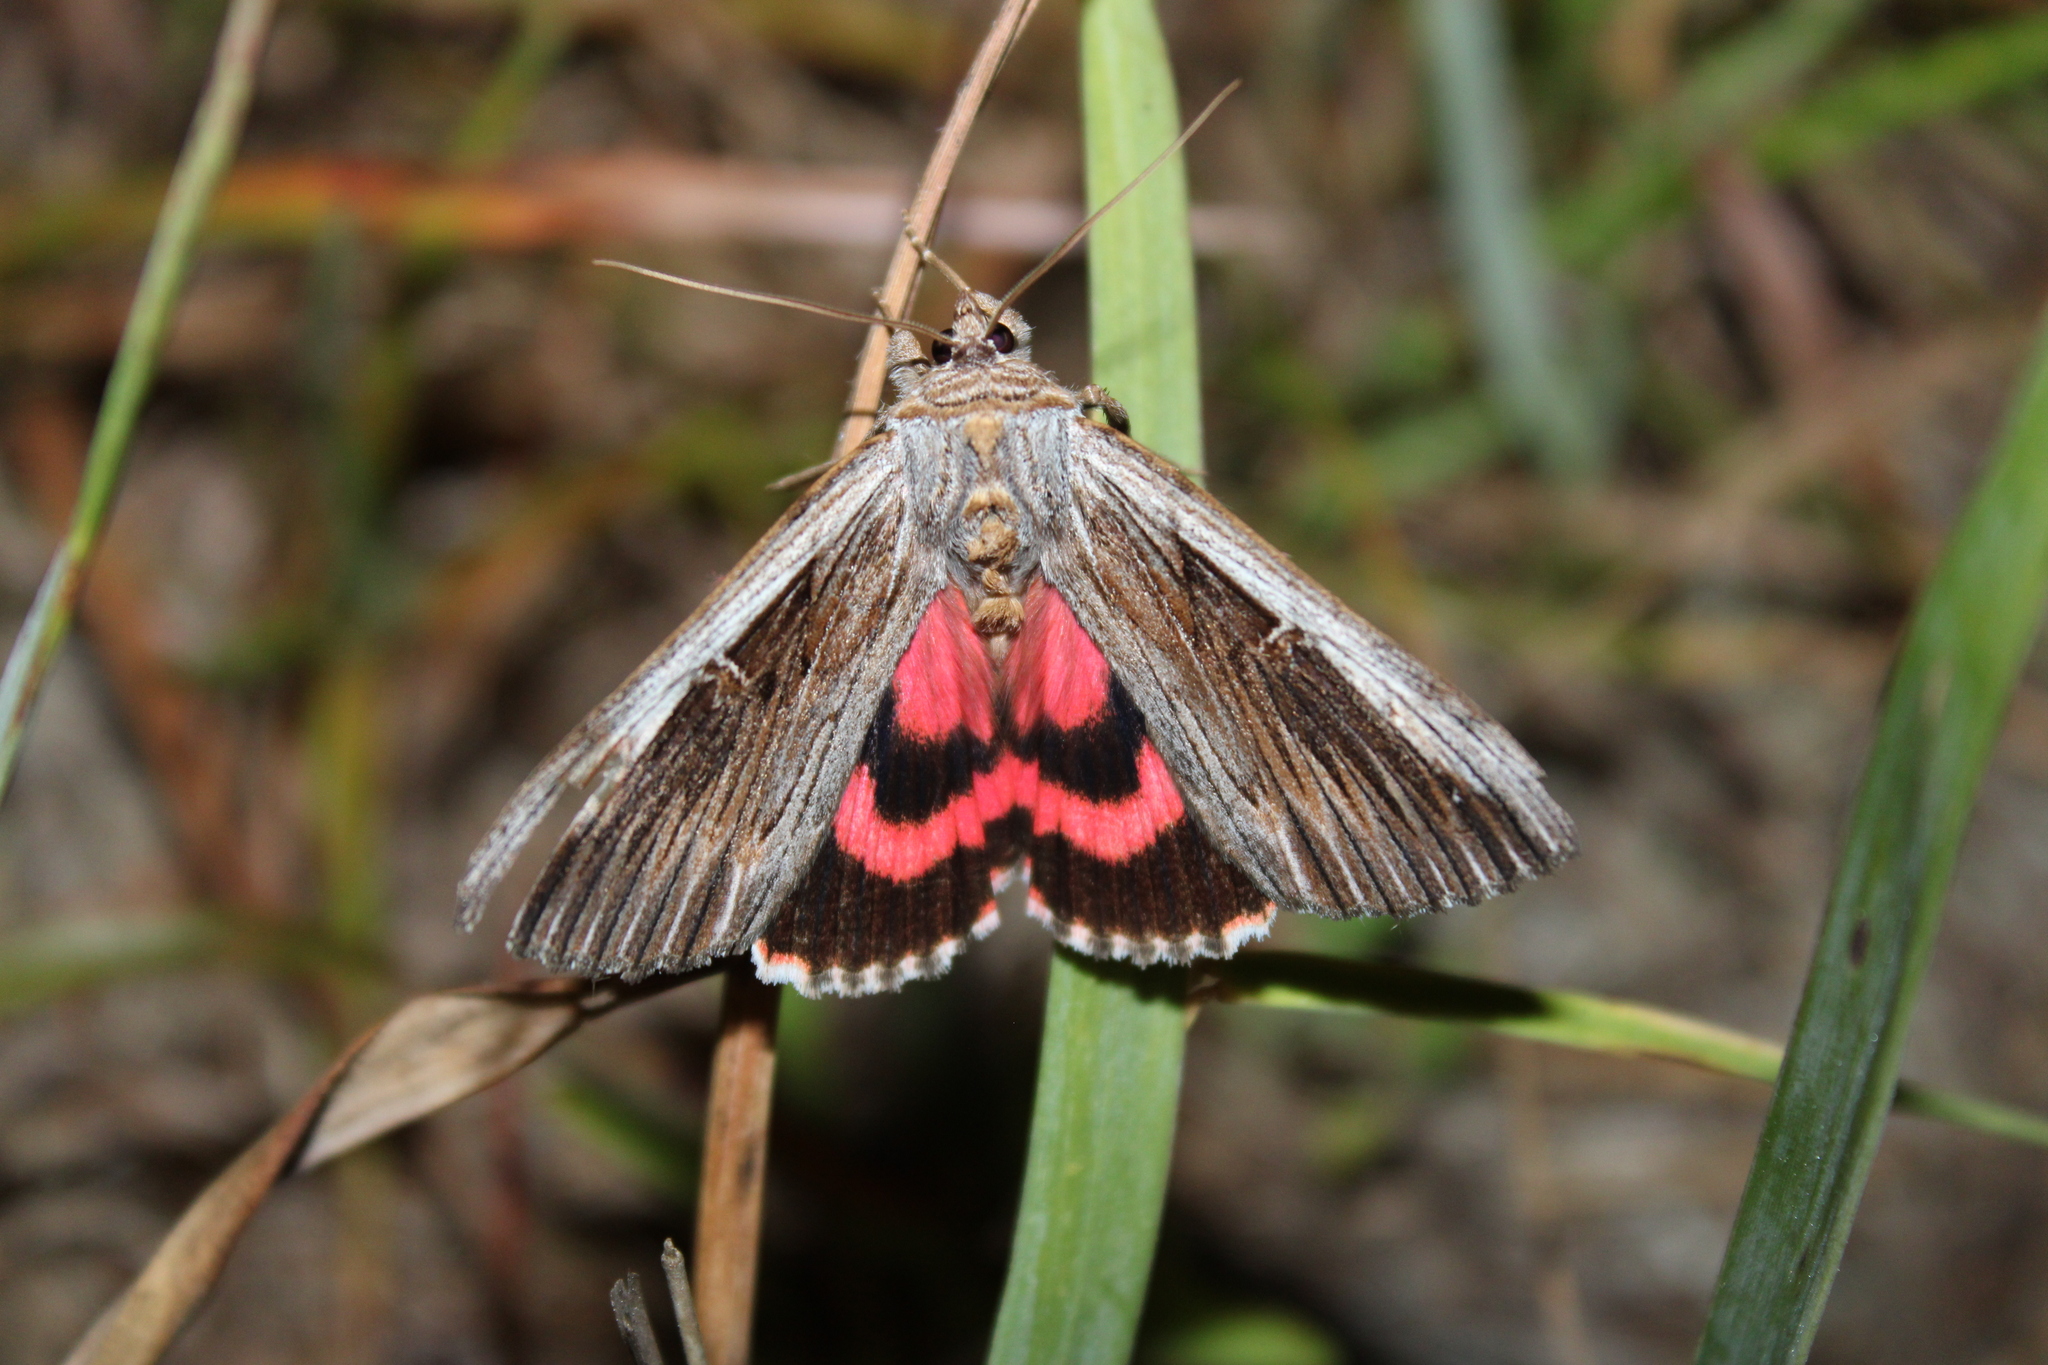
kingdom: Animalia
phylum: Arthropoda
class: Insecta
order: Lepidoptera
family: Erebidae
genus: Catocala
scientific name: Catocala herodias
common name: Pine barrens underwing
